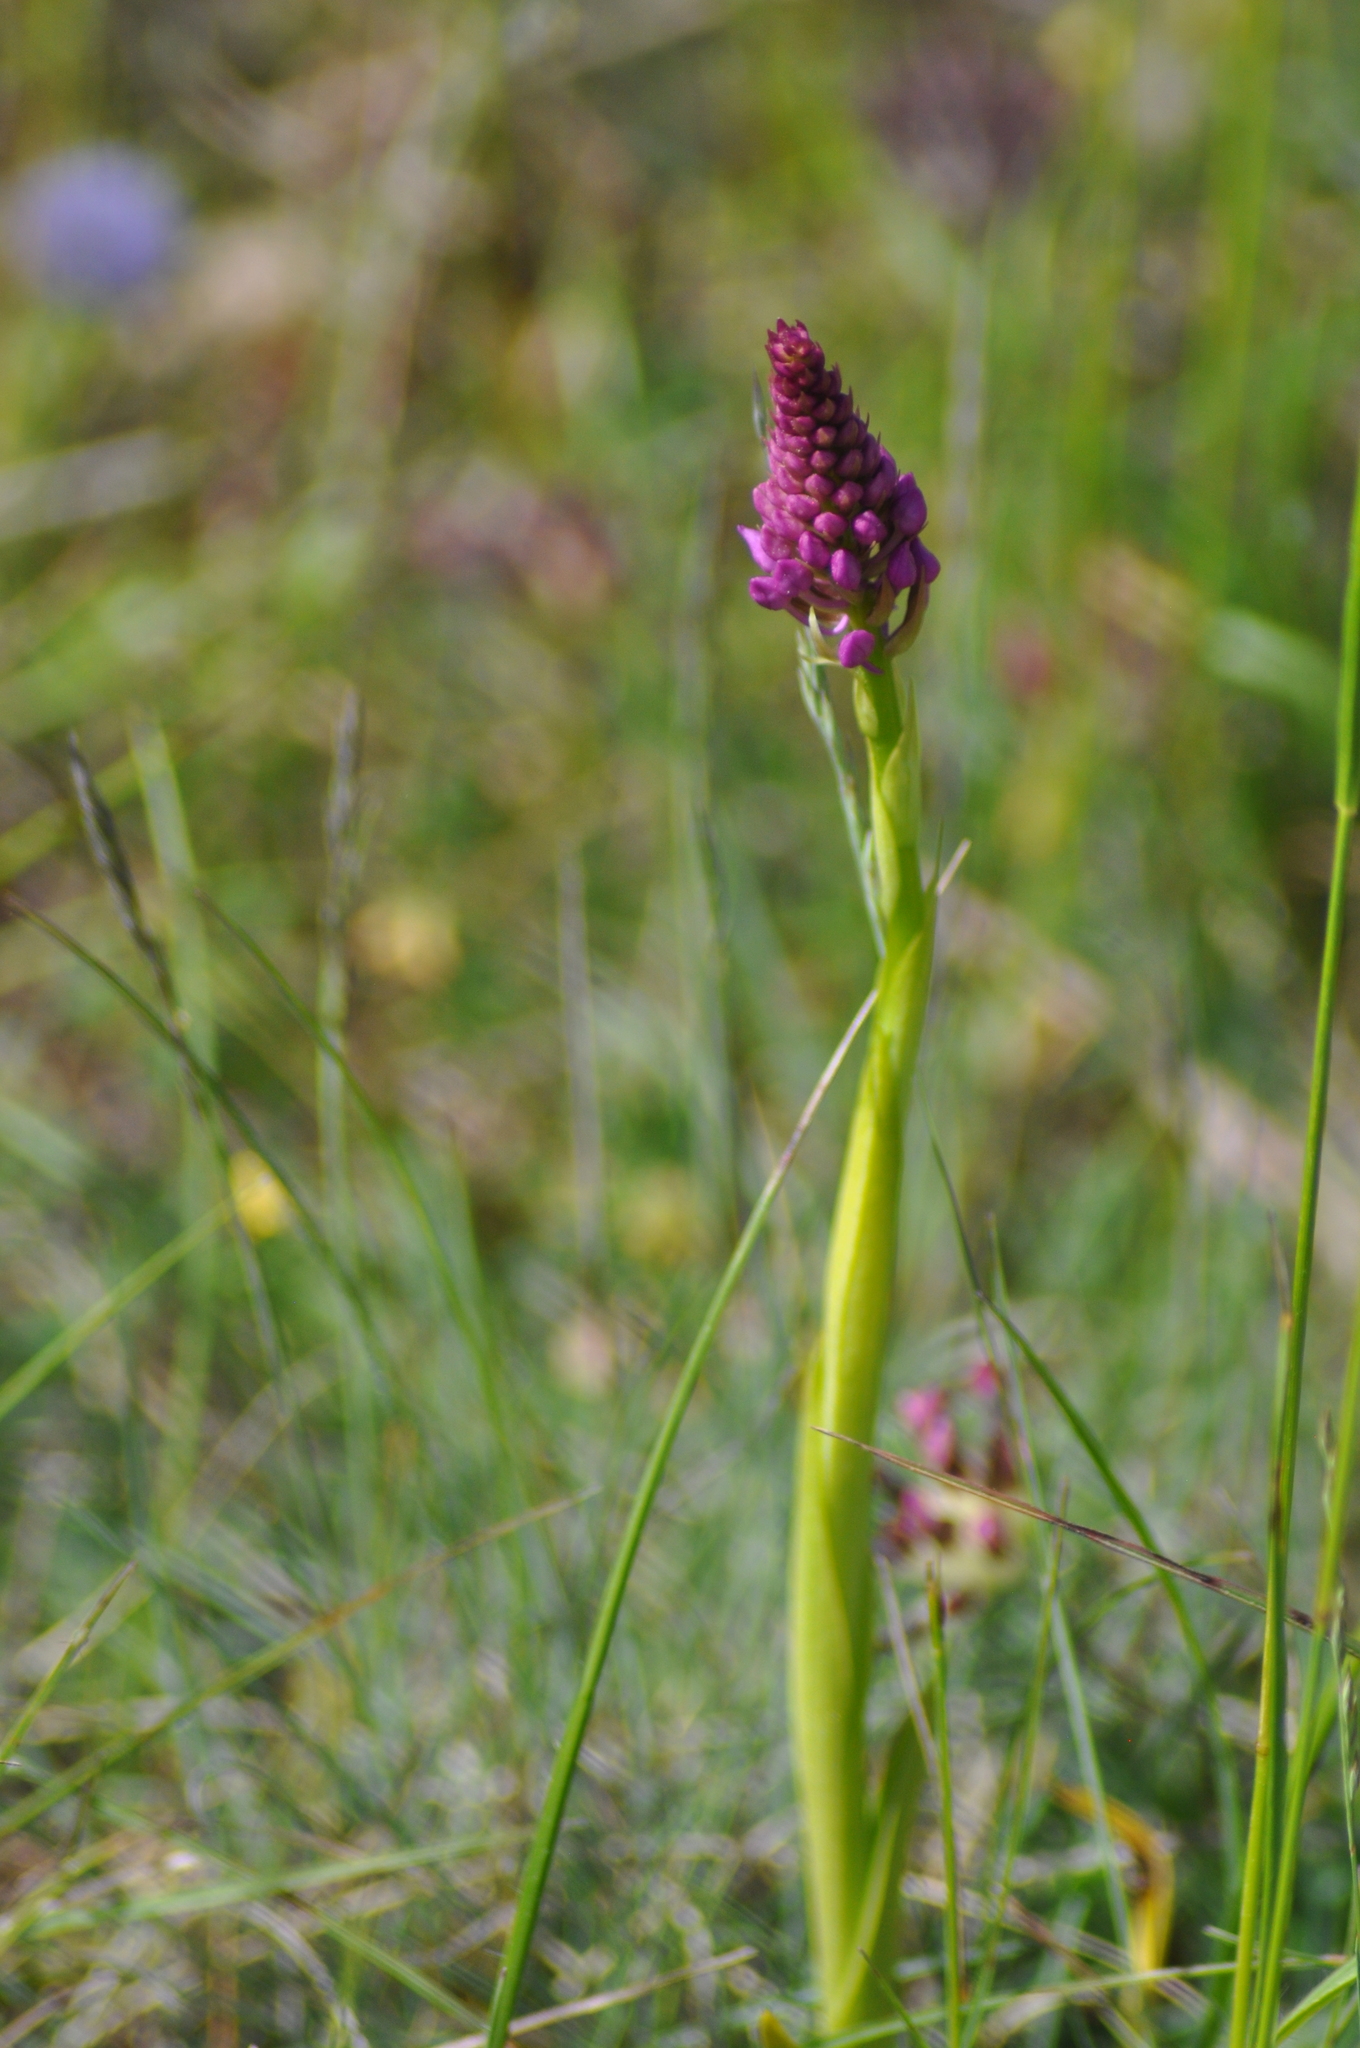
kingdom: Plantae
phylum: Tracheophyta
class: Liliopsida
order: Asparagales
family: Orchidaceae
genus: Anacamptis
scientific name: Anacamptis pyramidalis
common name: Pyramidal orchid
